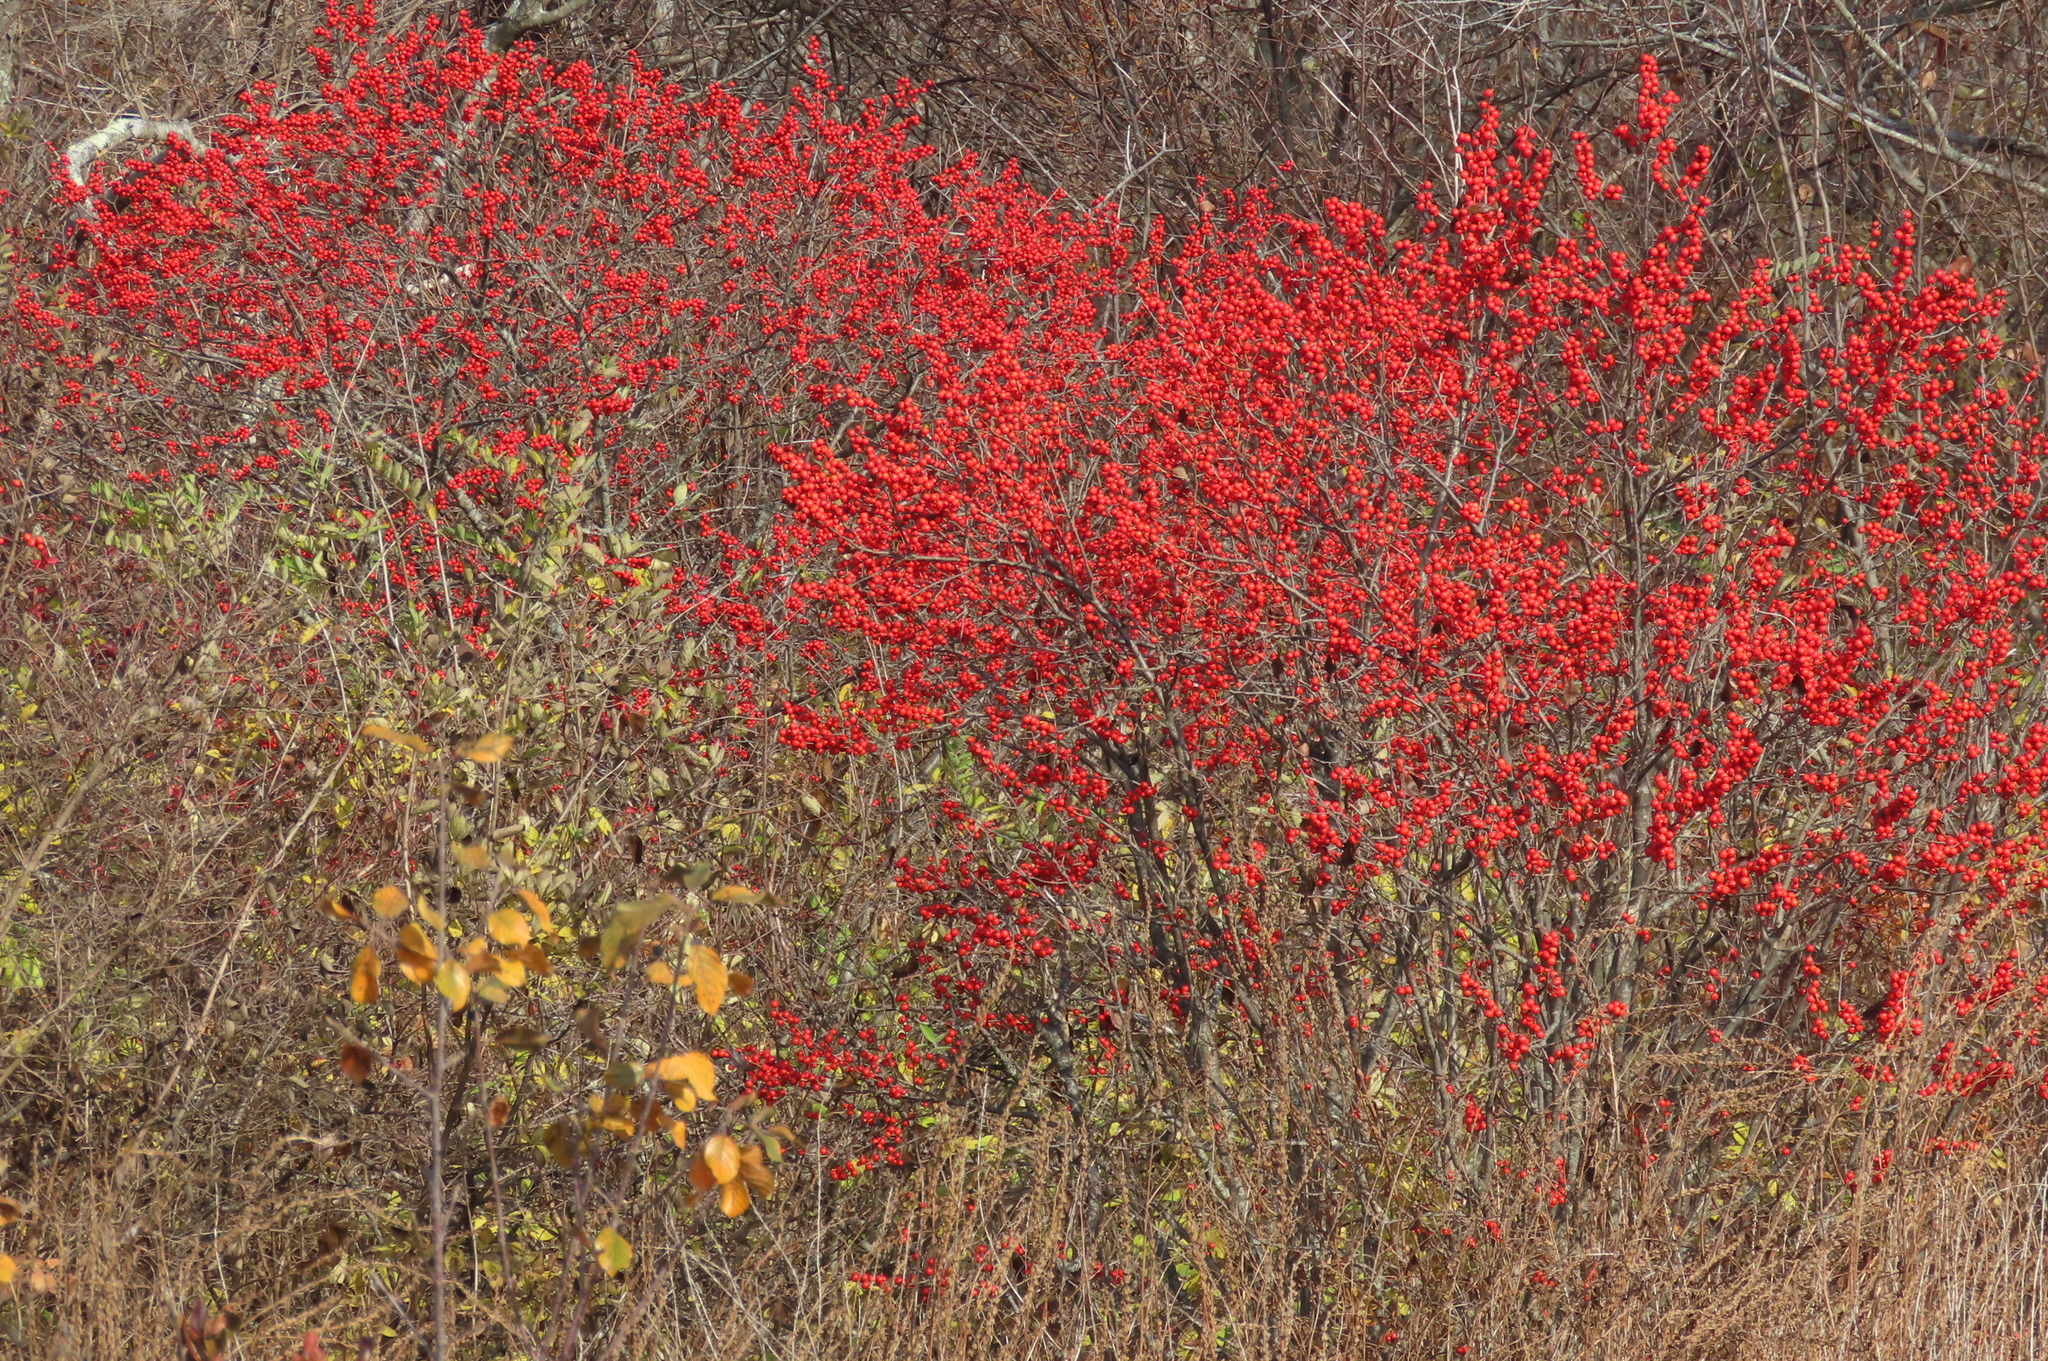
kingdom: Plantae
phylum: Tracheophyta
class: Magnoliopsida
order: Aquifoliales
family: Aquifoliaceae
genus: Ilex
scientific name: Ilex verticillata
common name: Virginia winterberry
